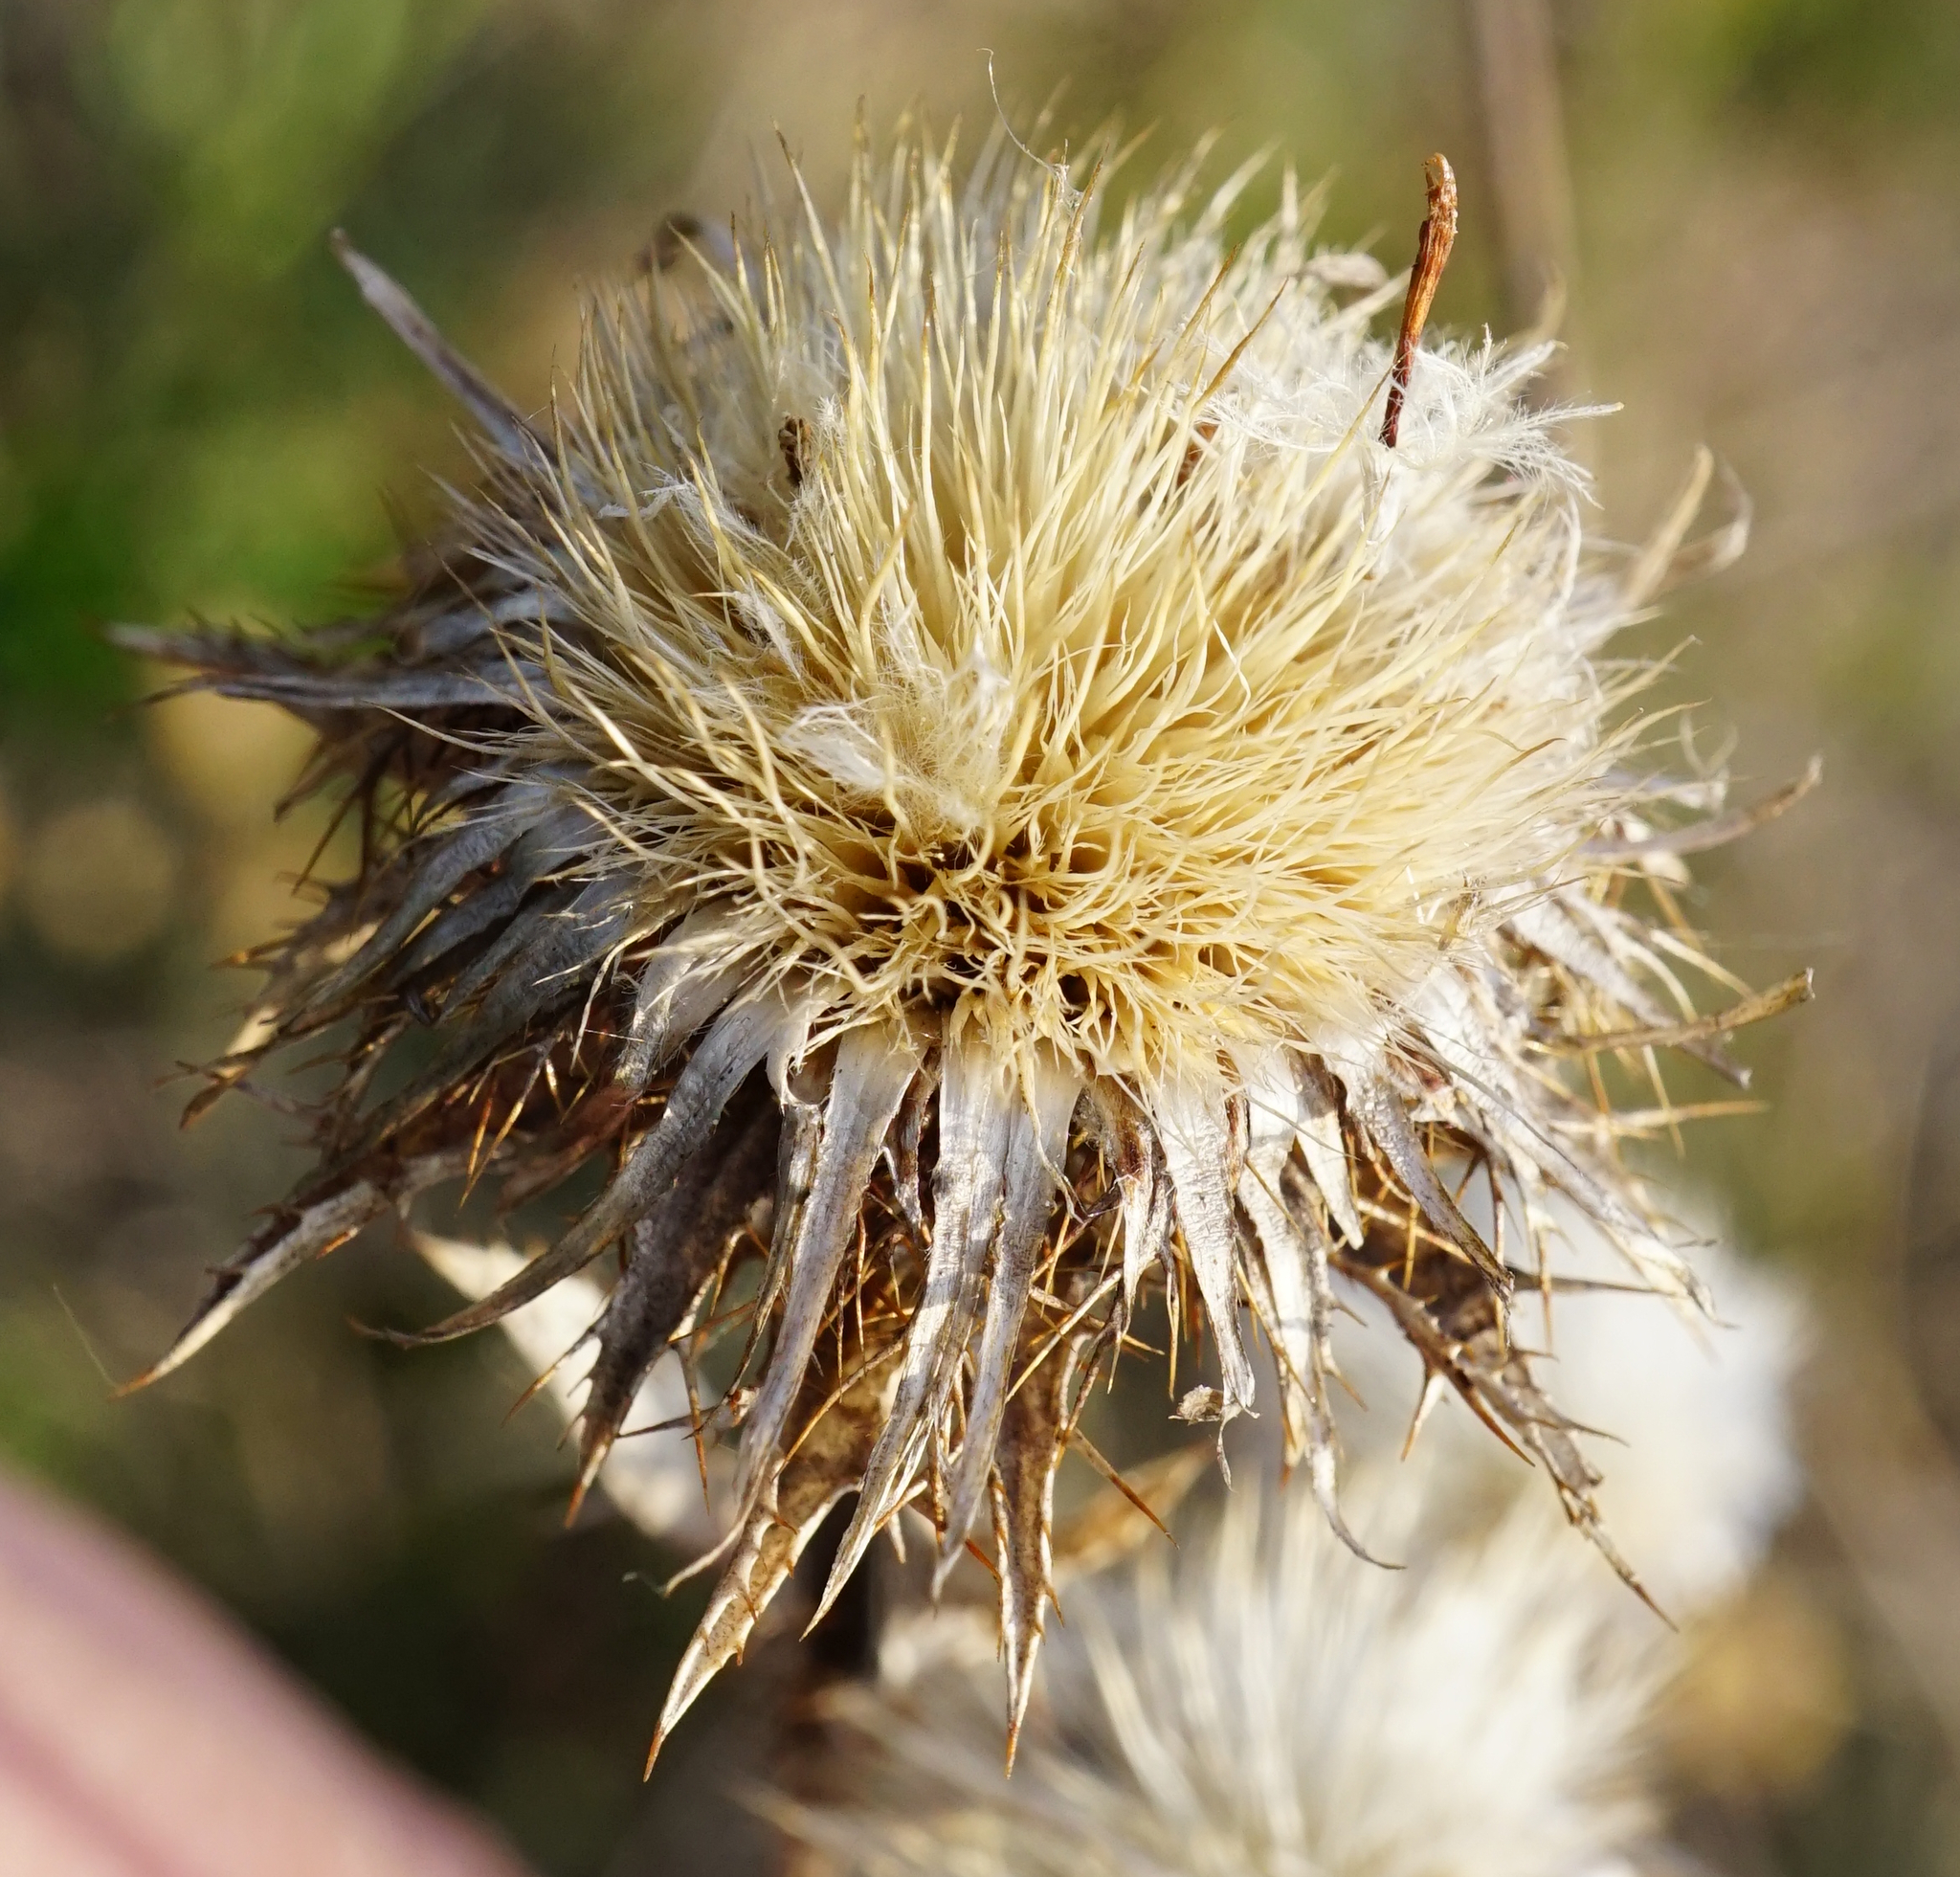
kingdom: Plantae
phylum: Tracheophyta
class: Magnoliopsida
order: Asterales
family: Asteraceae
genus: Carlina
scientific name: Carlina vulgaris
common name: Carline thistle
